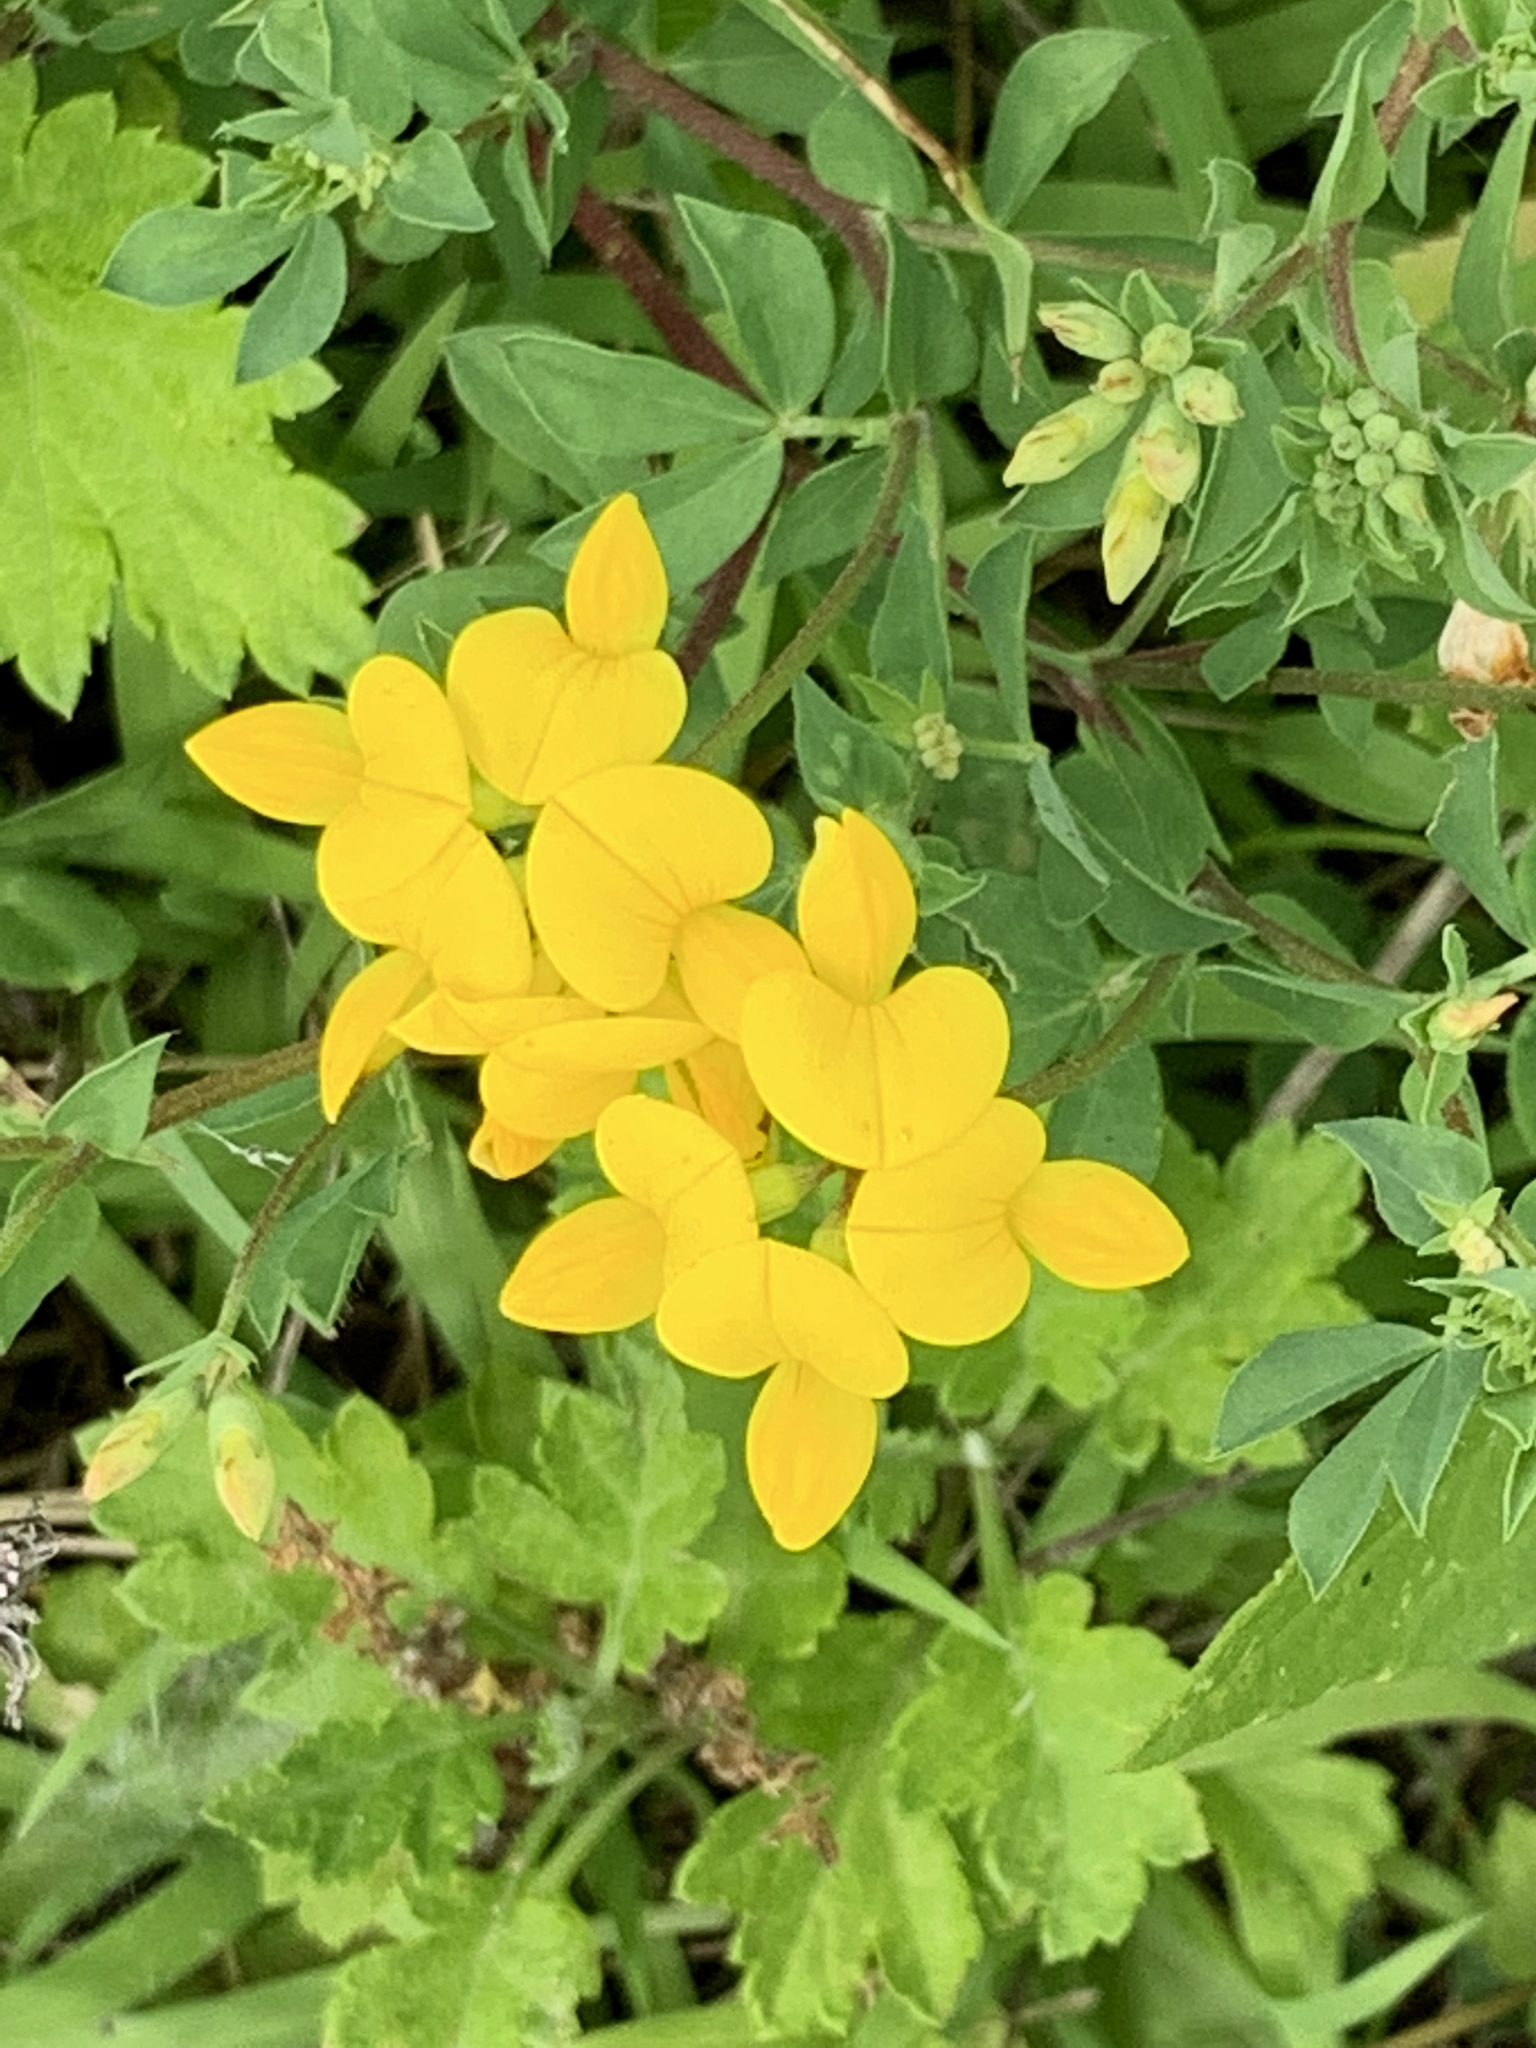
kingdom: Plantae
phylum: Tracheophyta
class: Magnoliopsida
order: Fabales
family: Fabaceae
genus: Lotus
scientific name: Lotus corniculatus
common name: Common bird's-foot-trefoil
